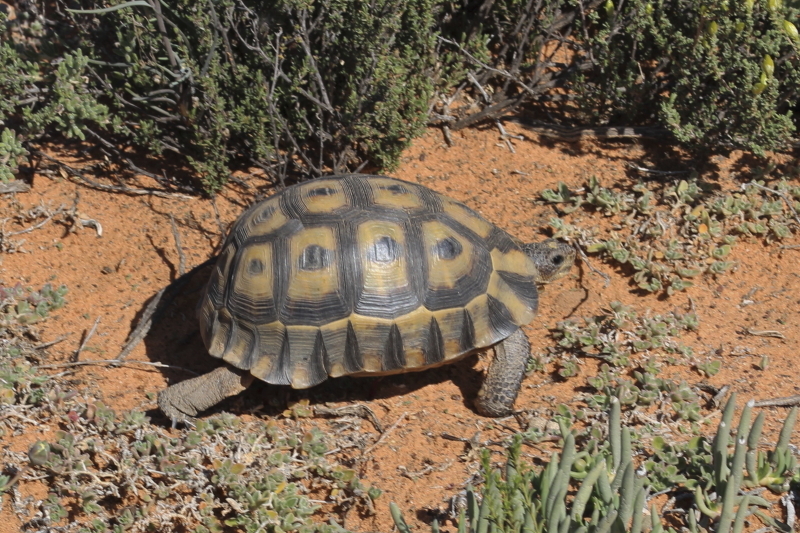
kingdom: Animalia
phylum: Chordata
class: Testudines
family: Testudinidae
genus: Chersina
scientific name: Chersina angulata
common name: South african bowsprit tortoise
